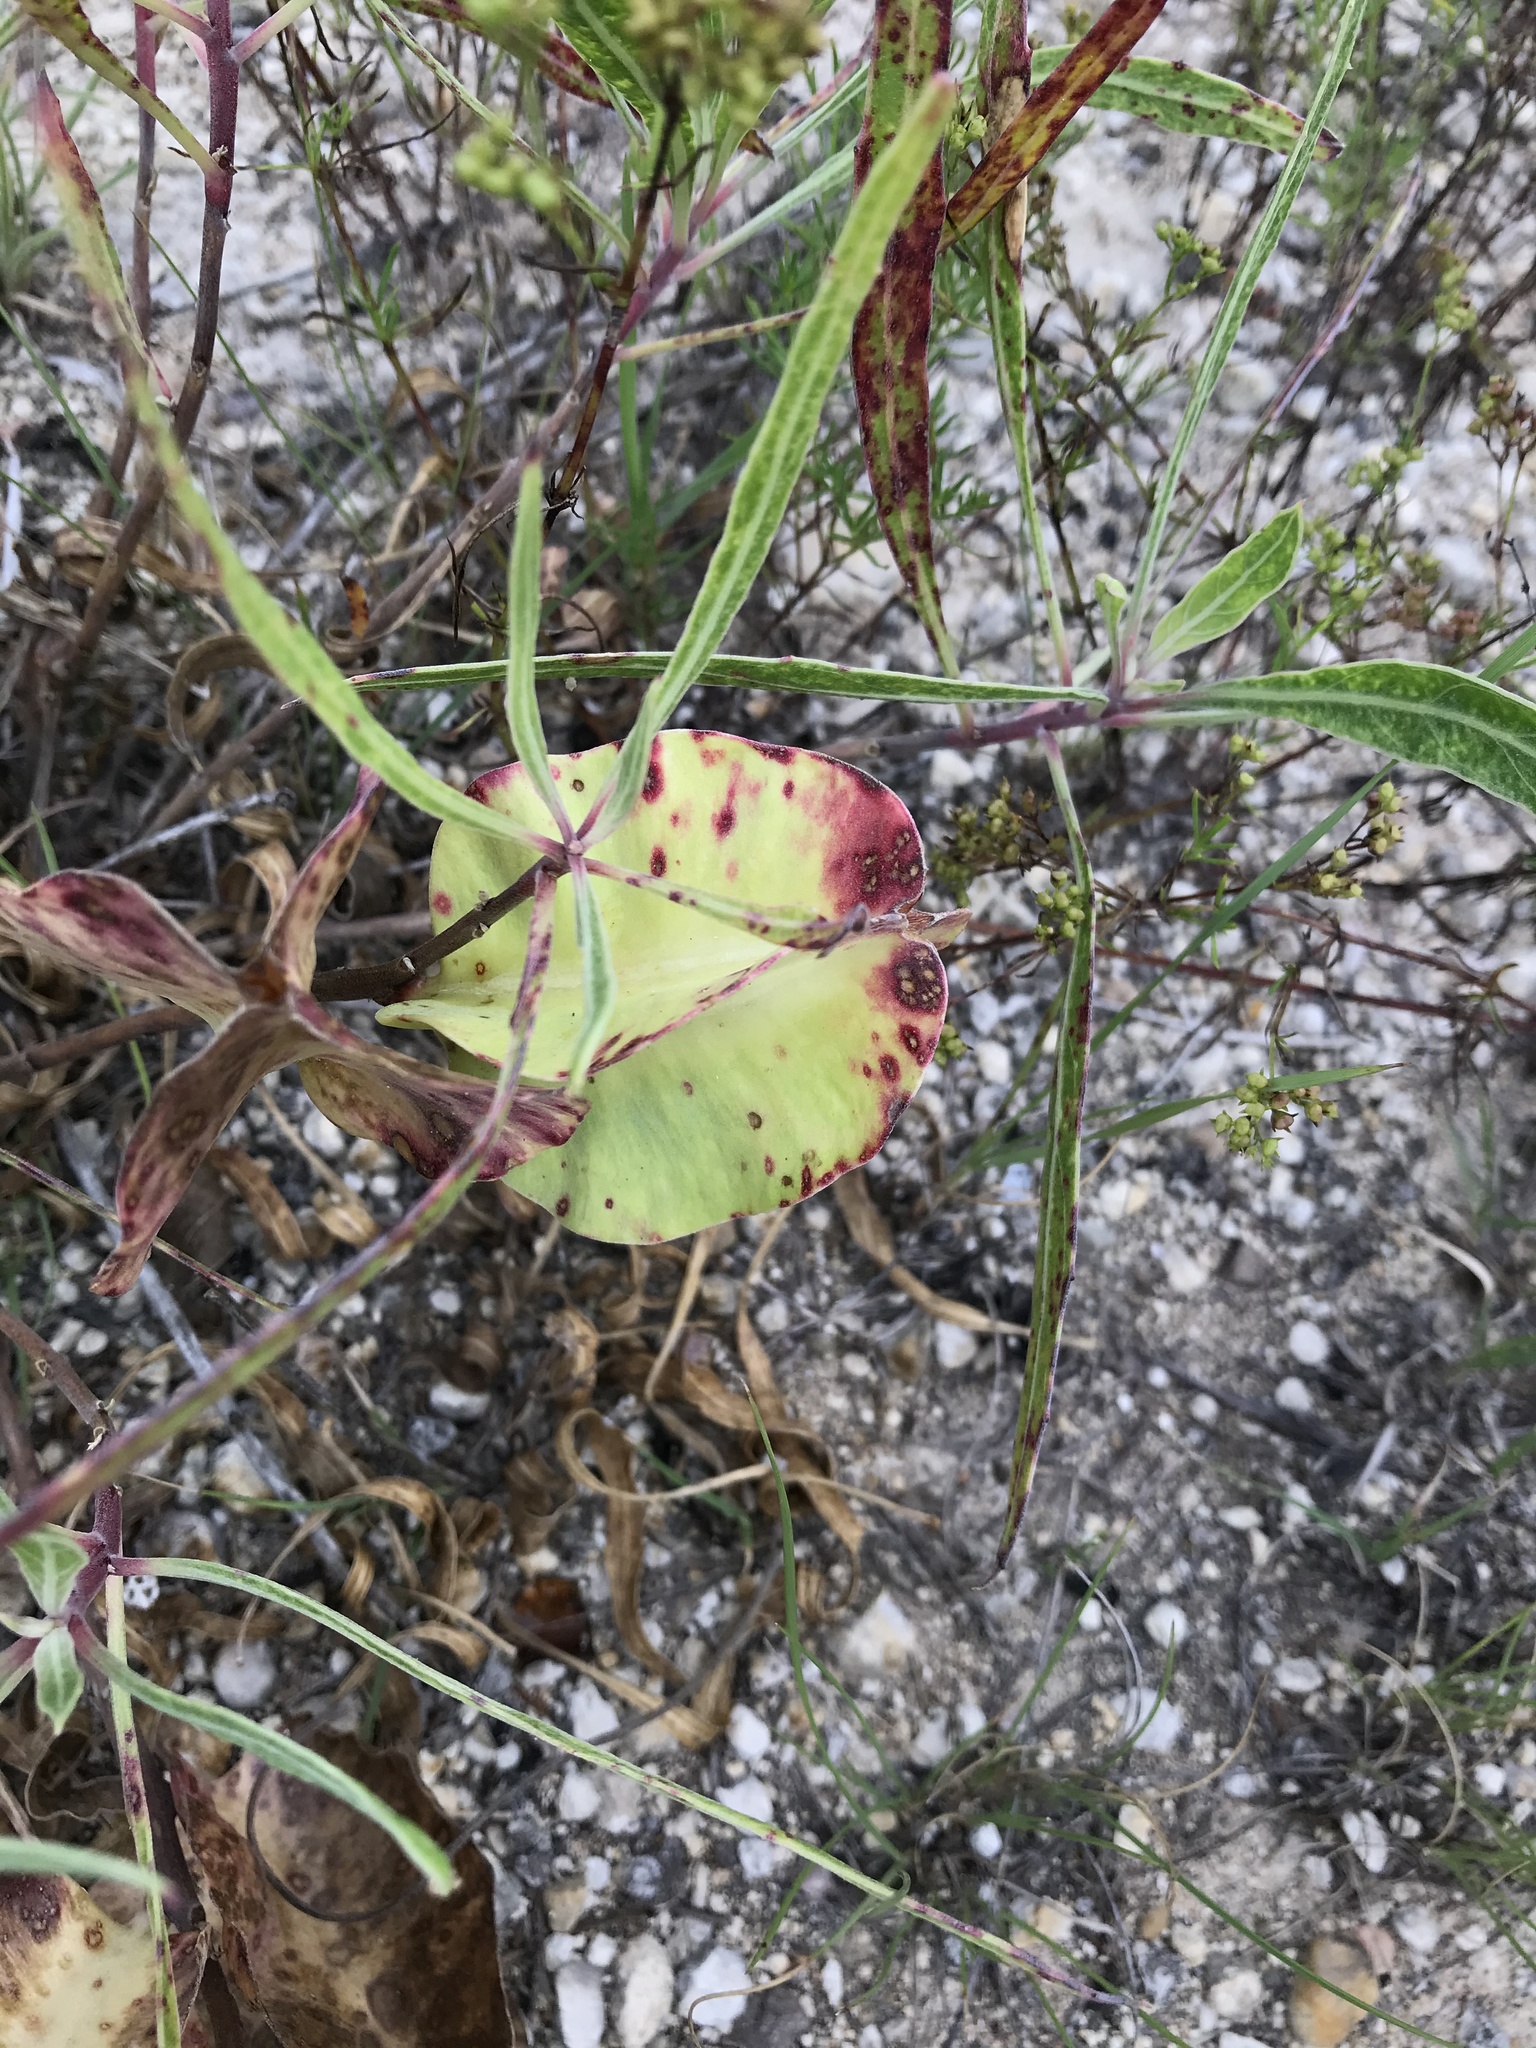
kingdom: Plantae
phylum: Tracheophyta
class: Magnoliopsida
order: Myrtales
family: Onagraceae
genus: Oenothera
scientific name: Oenothera macrocarpa
